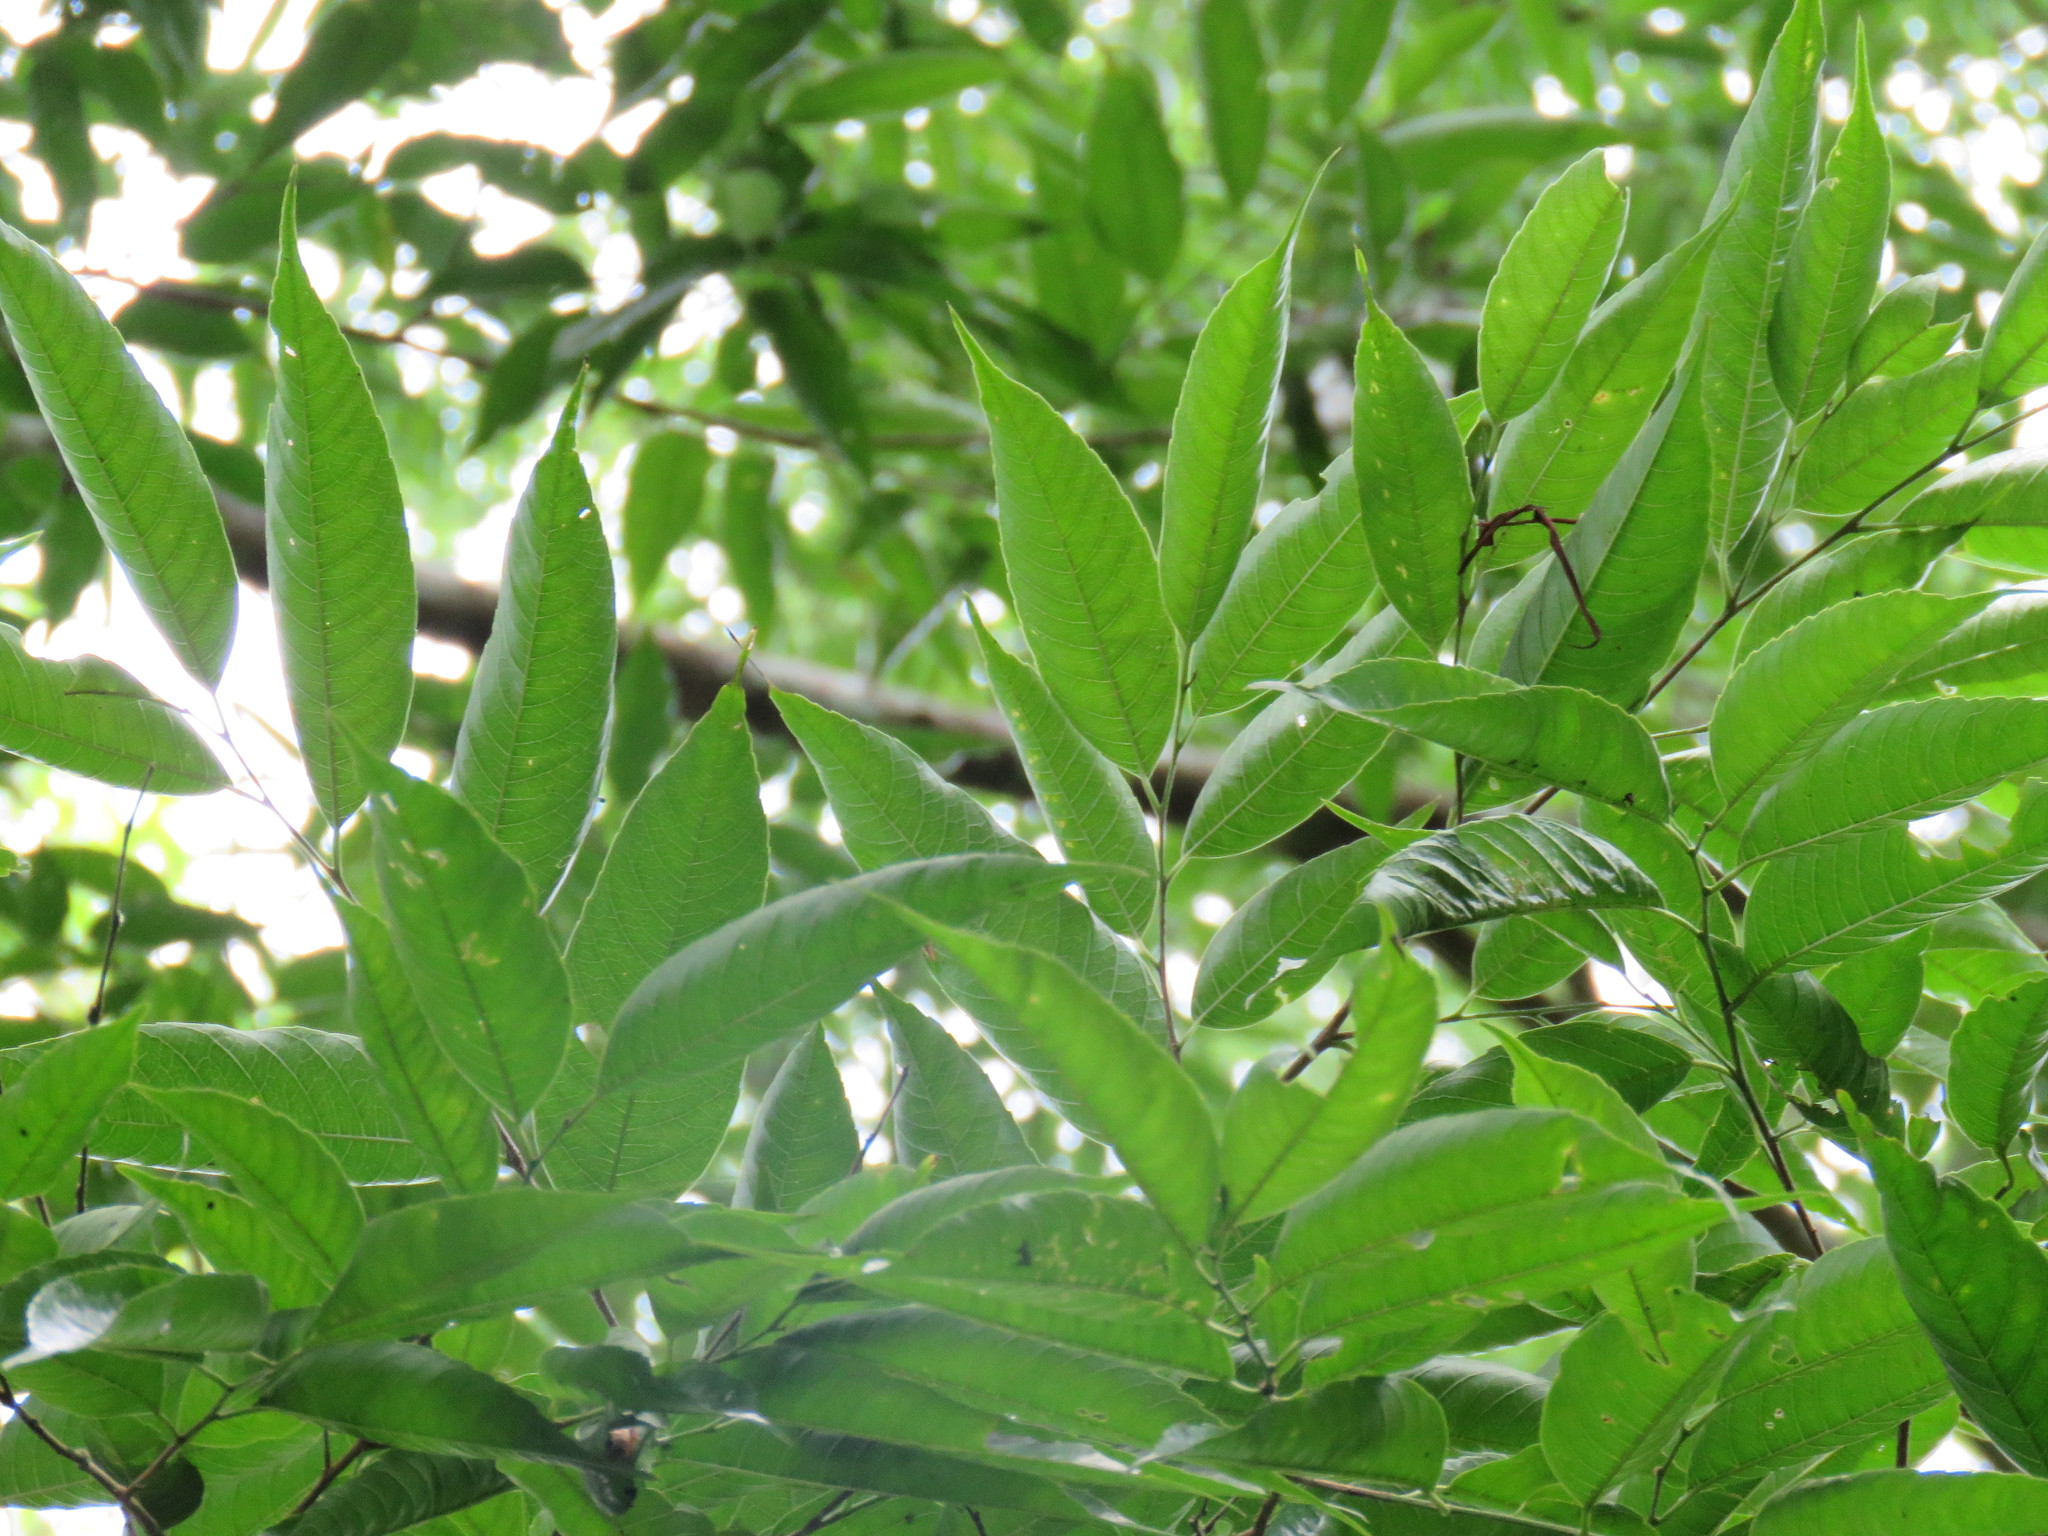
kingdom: Plantae
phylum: Tracheophyta
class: Magnoliopsida
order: Rosales
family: Cannabaceae
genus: Aphananthe
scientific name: Aphananthe monoica
